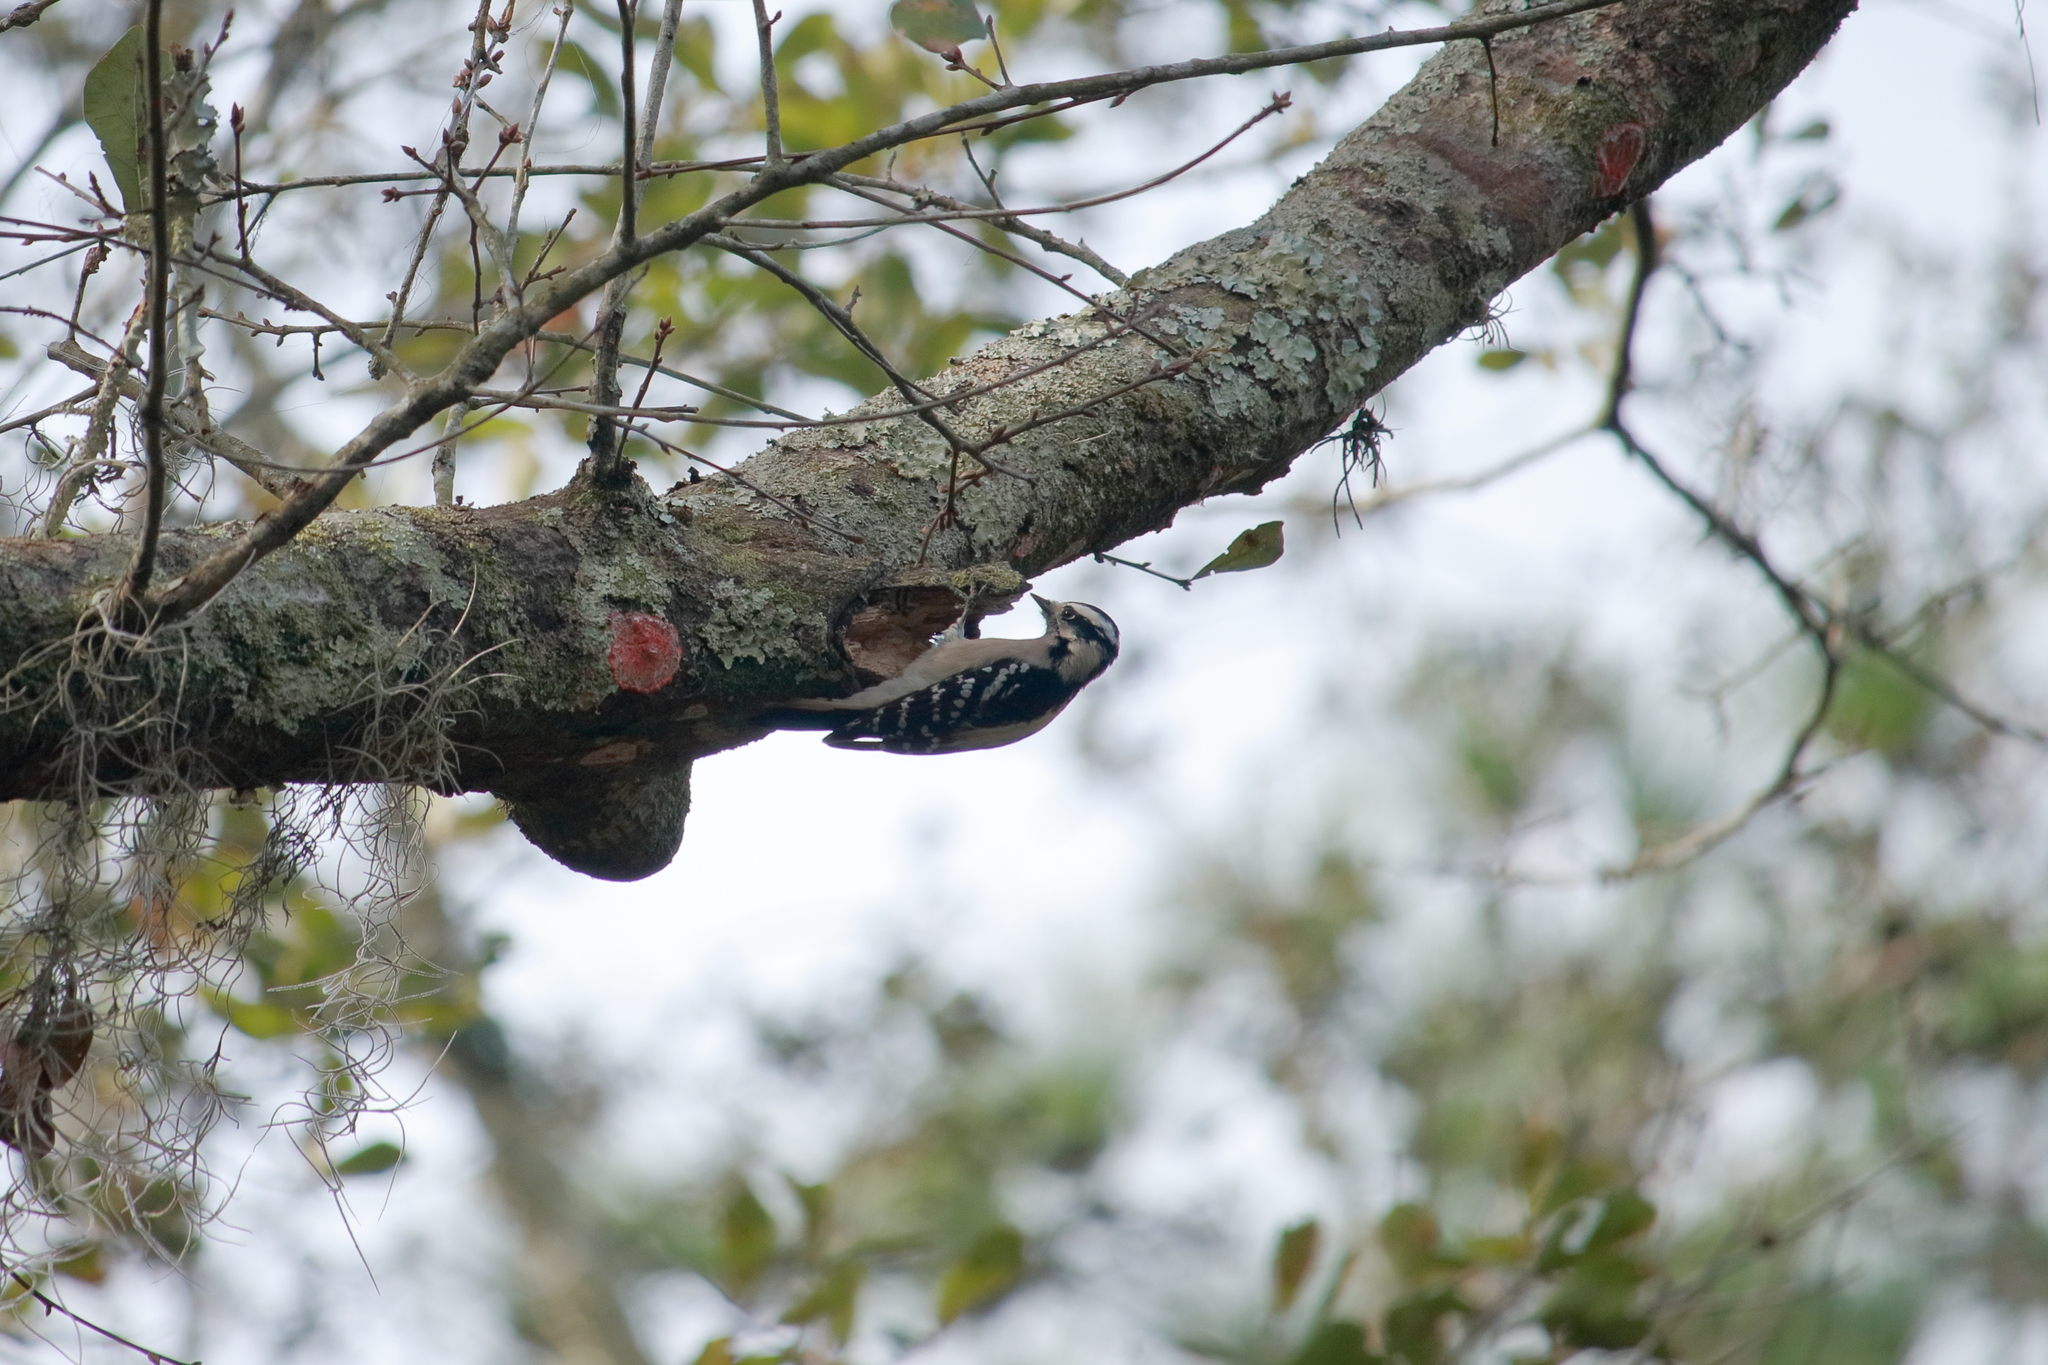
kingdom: Animalia
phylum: Chordata
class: Aves
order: Piciformes
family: Picidae
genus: Dryobates
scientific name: Dryobates pubescens
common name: Downy woodpecker
